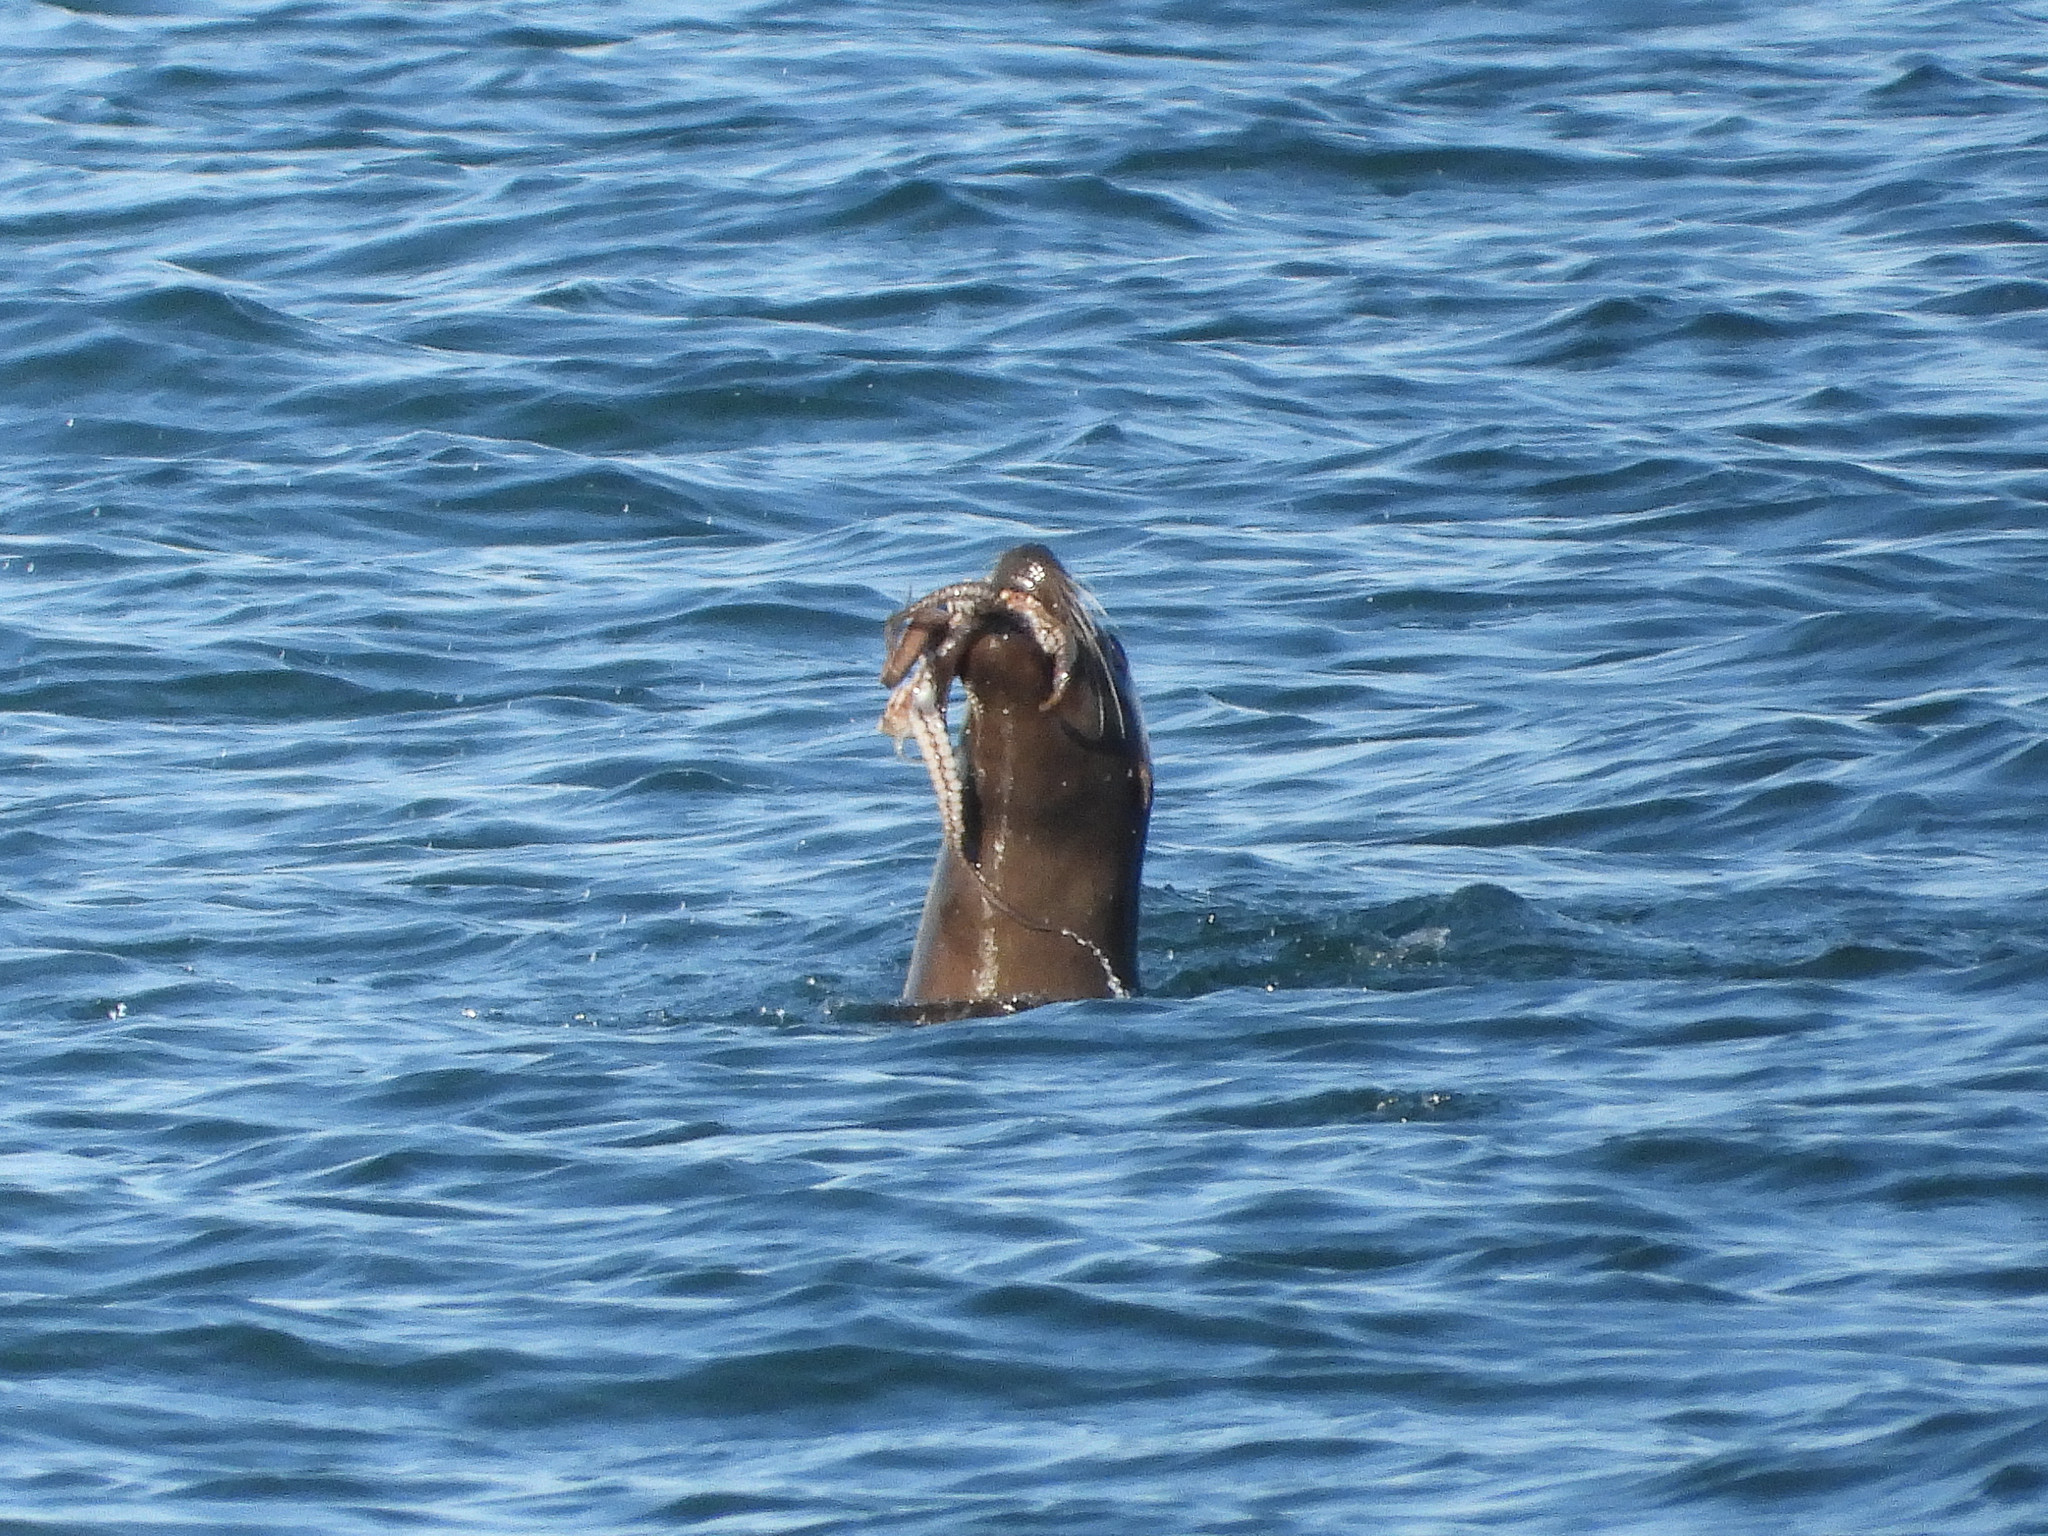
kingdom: Animalia
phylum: Chordata
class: Mammalia
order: Carnivora
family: Otariidae
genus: Zalophus
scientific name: Zalophus californianus
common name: California sea lion
